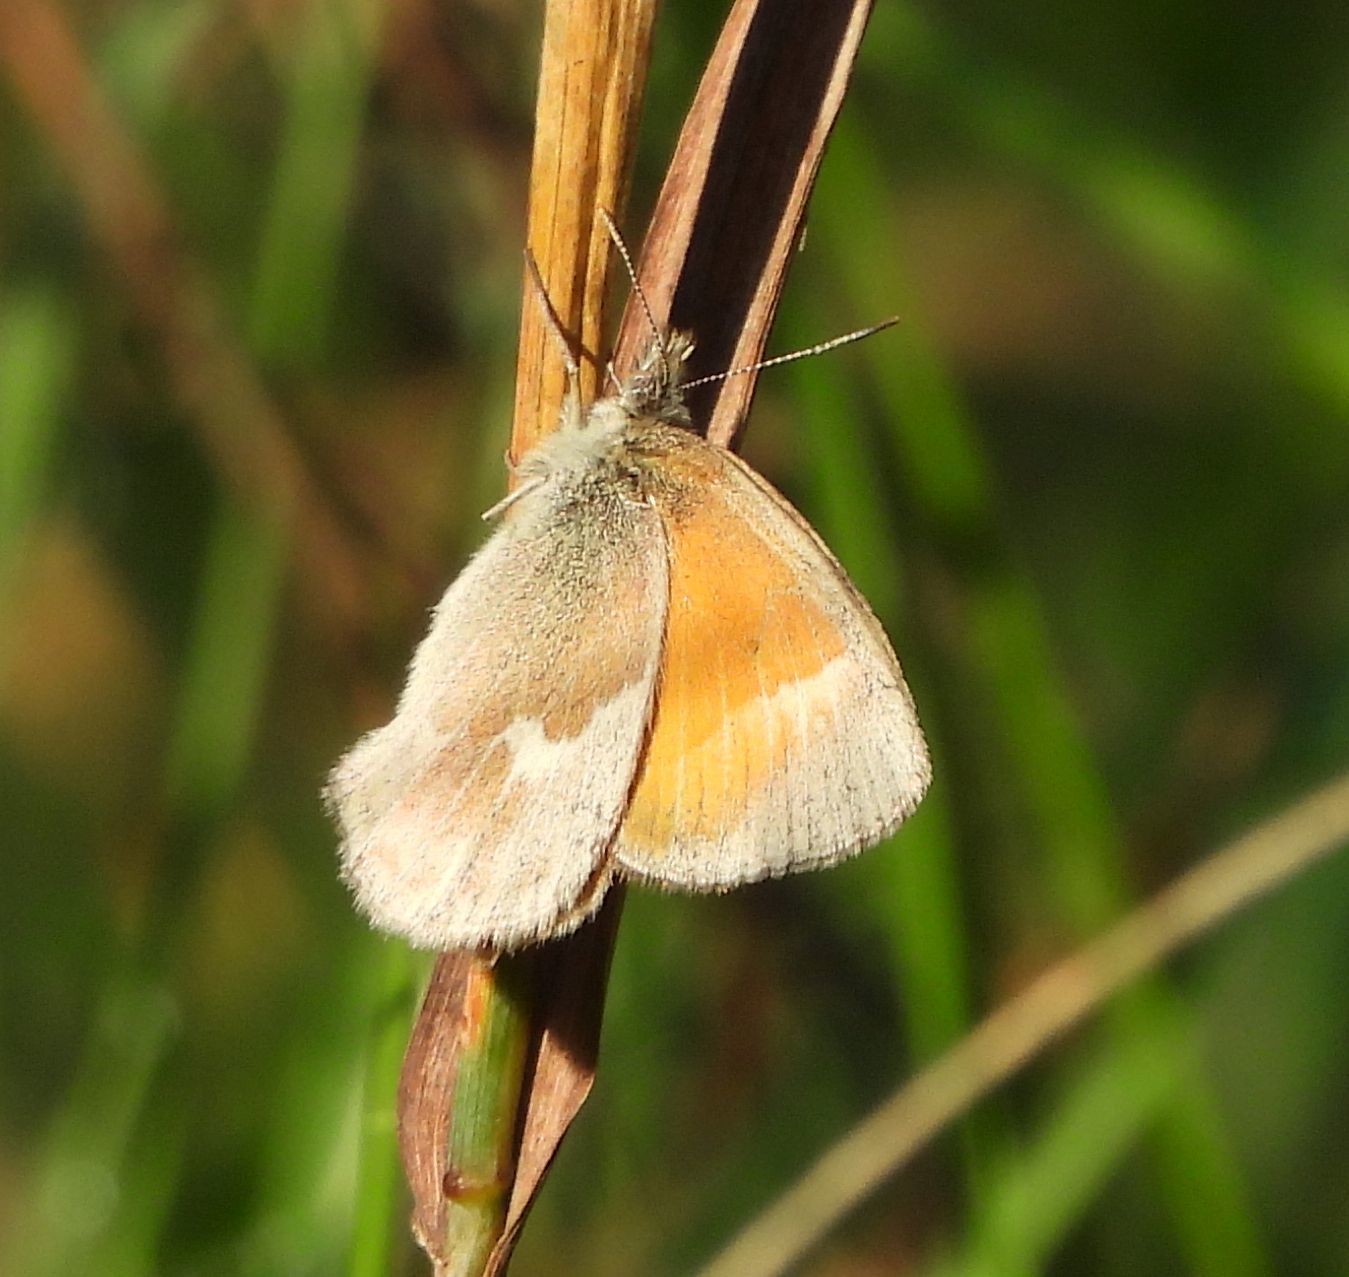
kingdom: Animalia
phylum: Arthropoda
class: Insecta
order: Lepidoptera
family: Nymphalidae
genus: Coenonympha
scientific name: Coenonympha california
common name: Common ringlet
